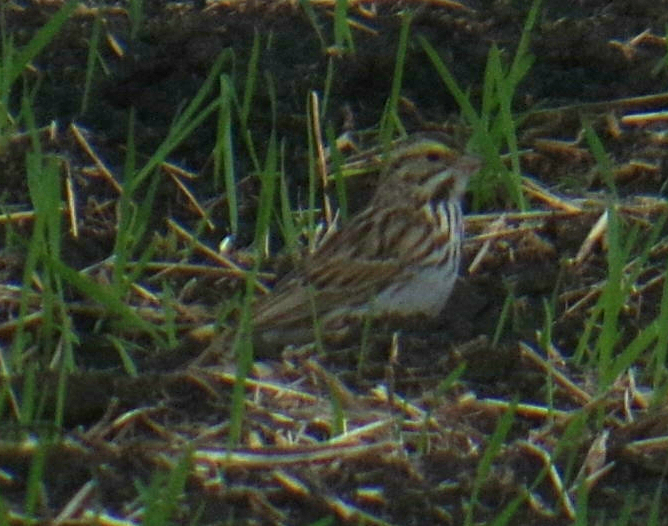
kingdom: Animalia
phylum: Chordata
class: Aves
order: Passeriformes
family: Passerellidae
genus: Passerculus
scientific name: Passerculus sandwichensis
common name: Savannah sparrow
